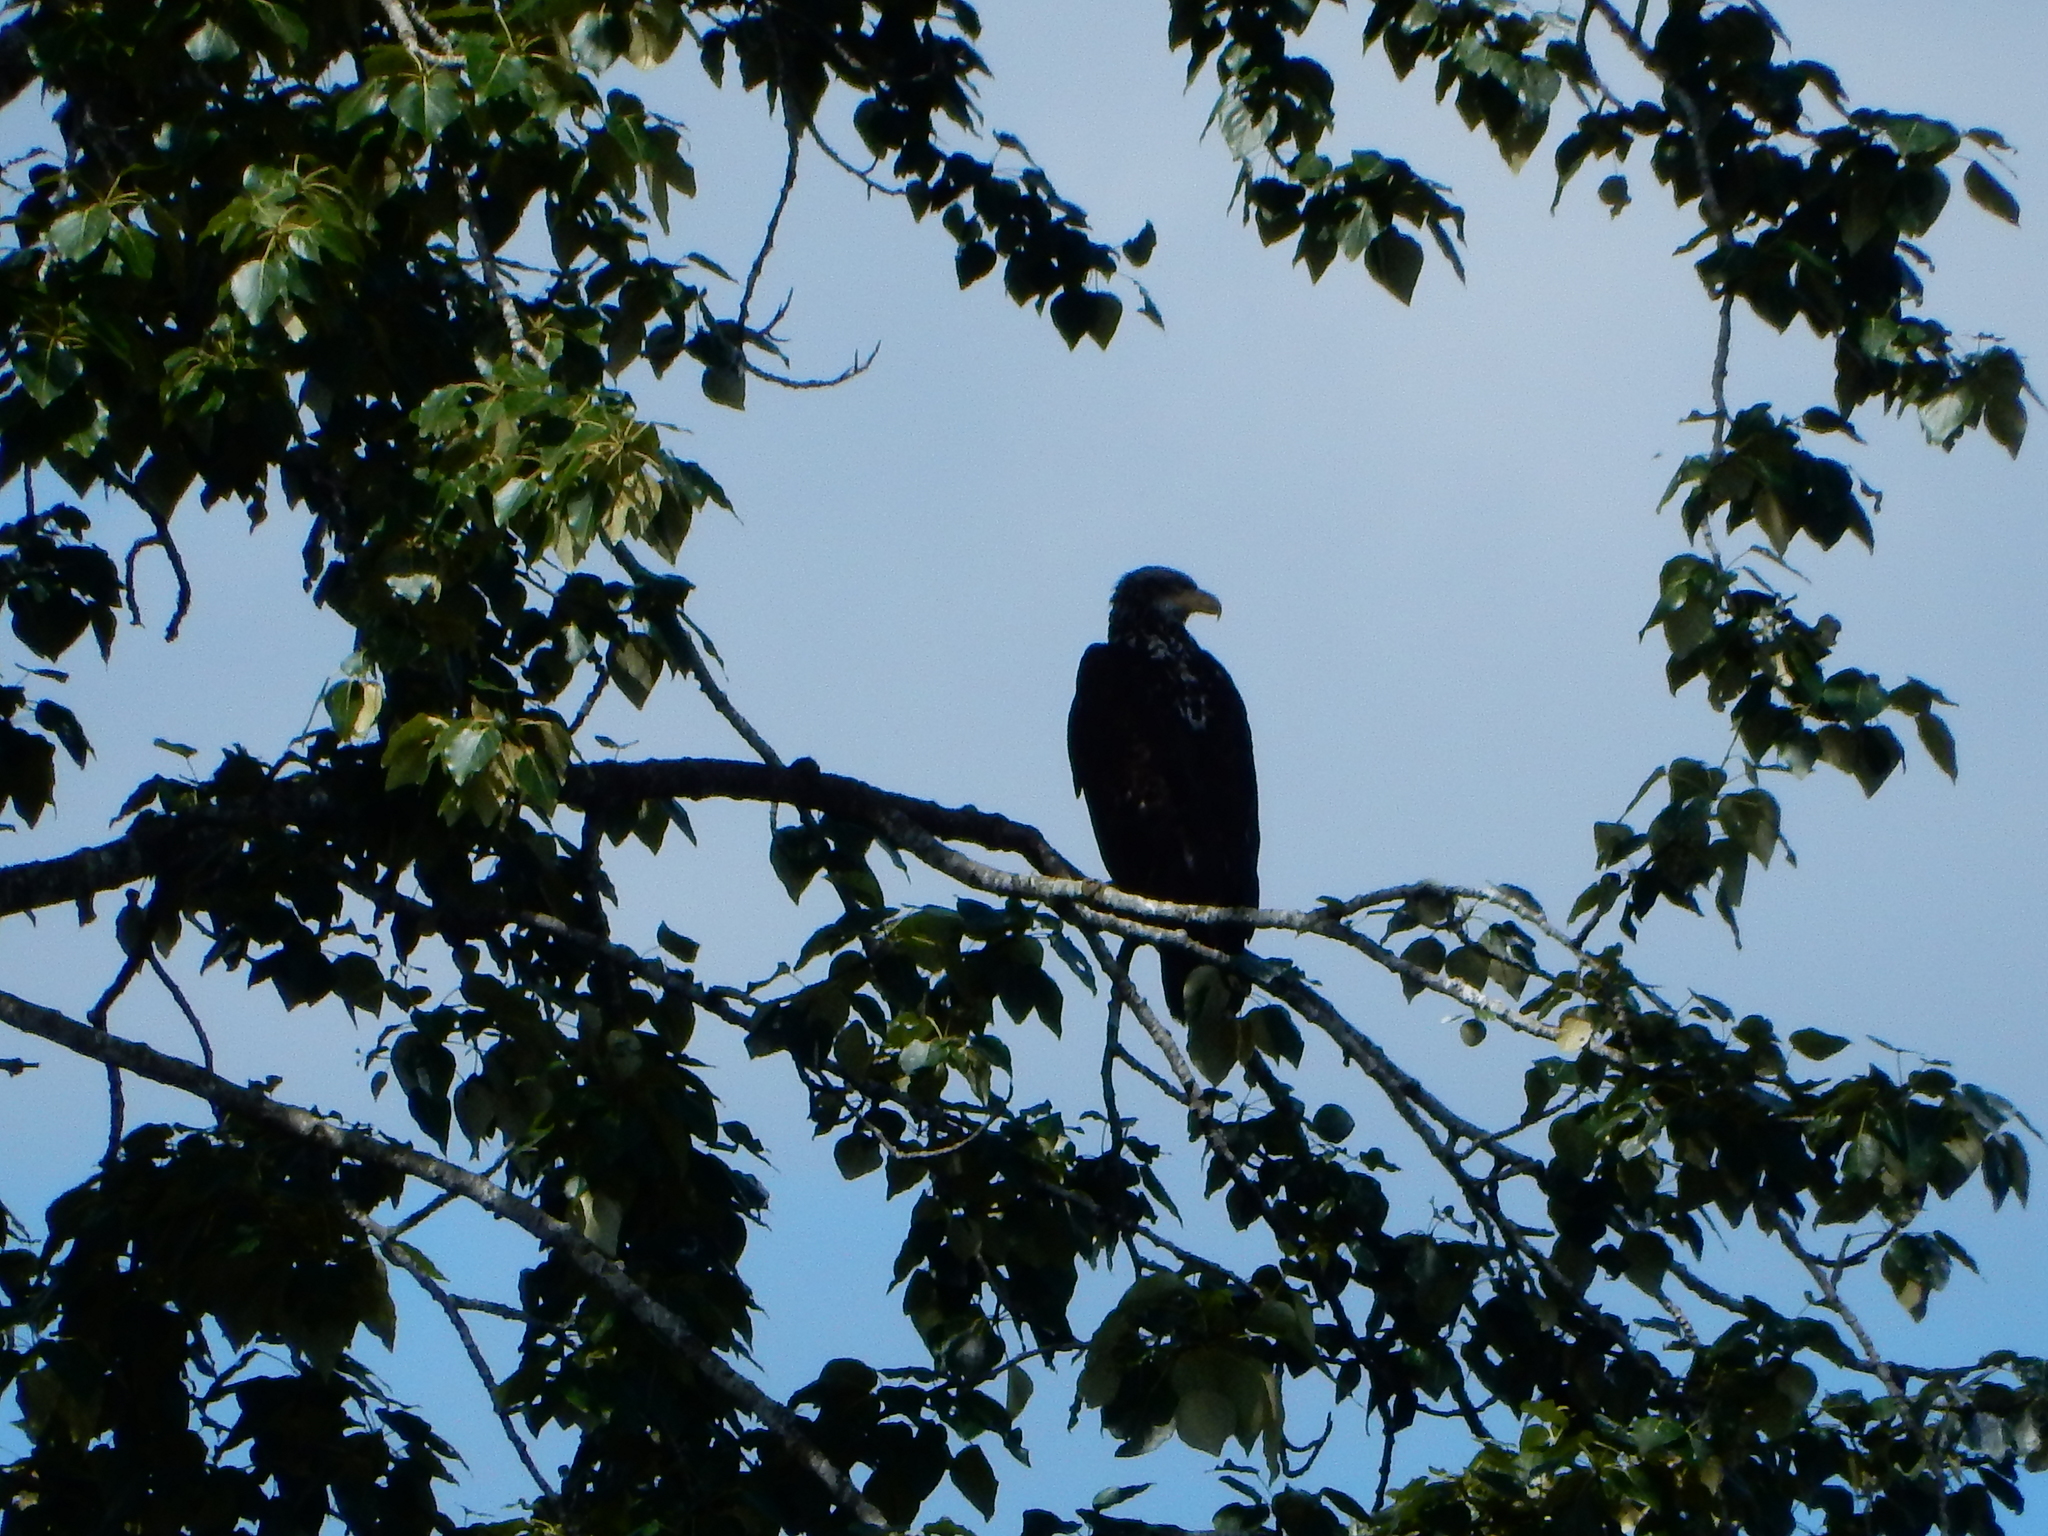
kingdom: Animalia
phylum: Chordata
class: Aves
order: Accipitriformes
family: Accipitridae
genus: Haliaeetus
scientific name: Haliaeetus leucocephalus
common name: Bald eagle
